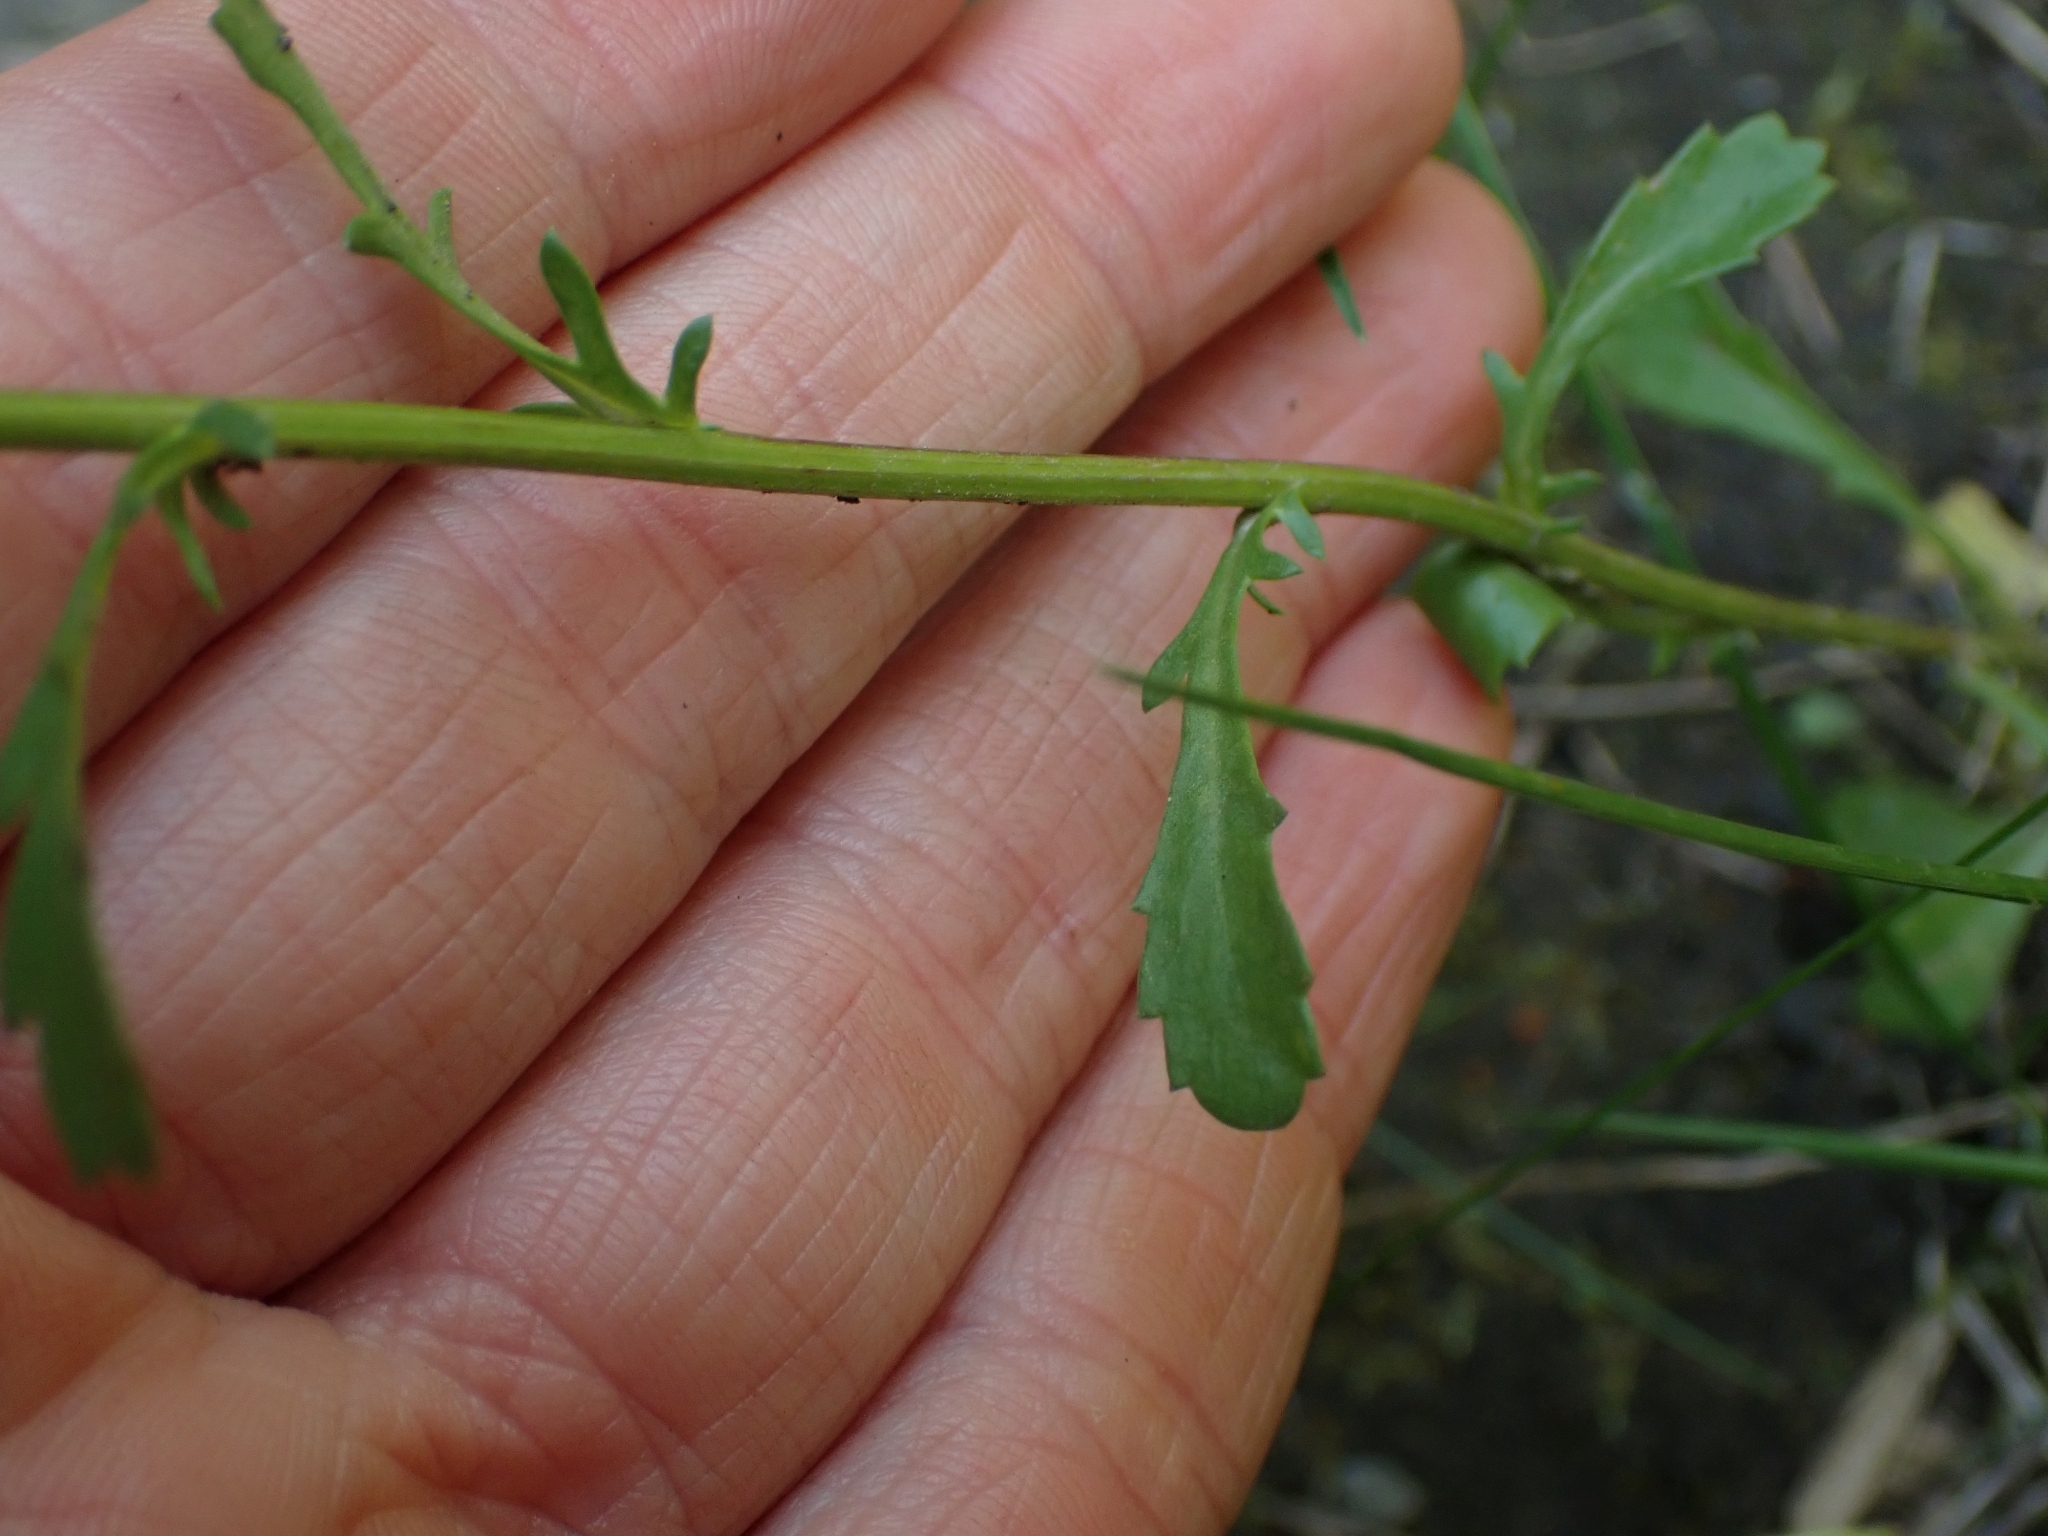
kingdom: Plantae
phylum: Tracheophyta
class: Magnoliopsida
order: Asterales
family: Asteraceae
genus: Leucanthemum
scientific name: Leucanthemum vulgare
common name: Oxeye daisy
